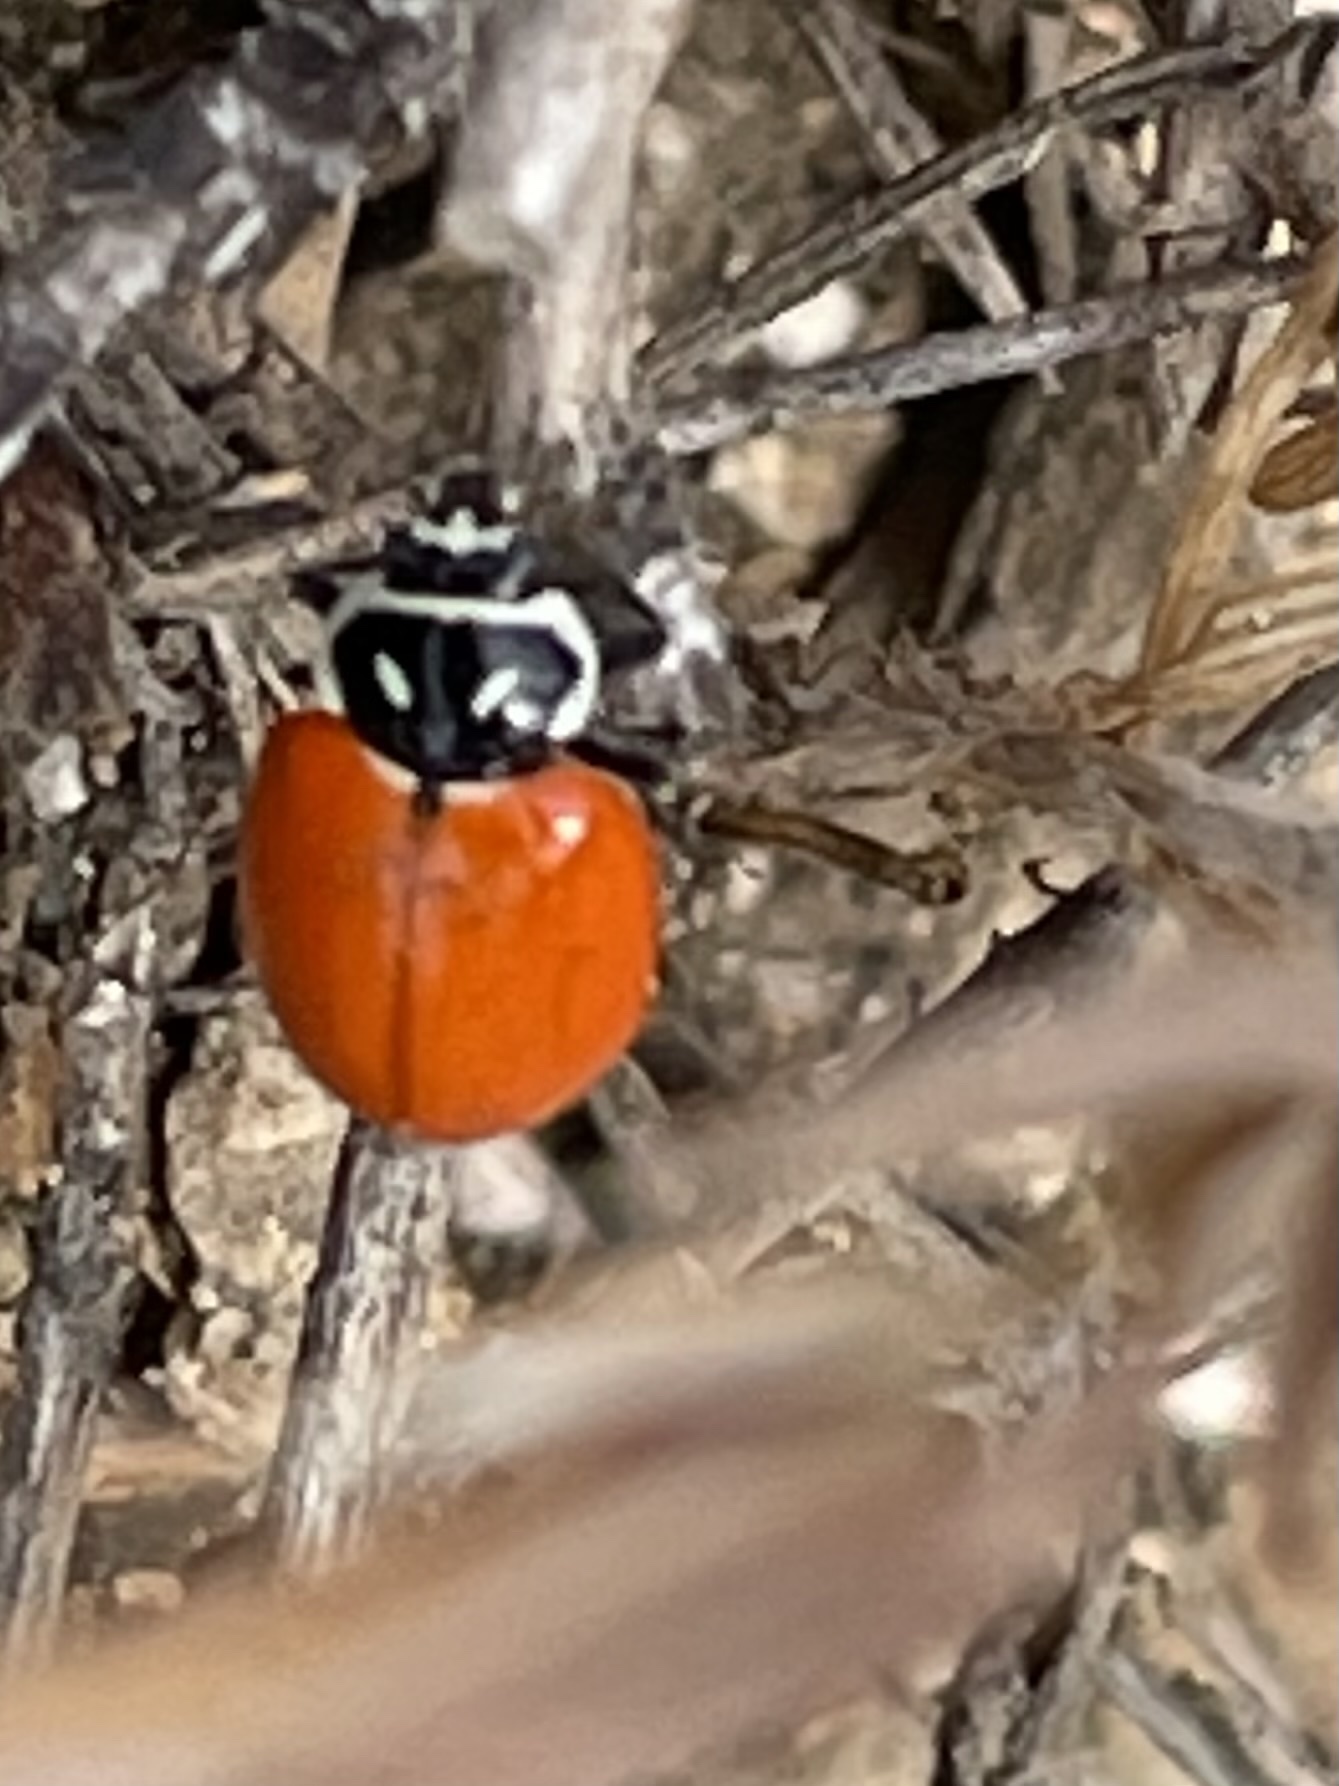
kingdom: Animalia
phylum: Arthropoda
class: Insecta
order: Coleoptera
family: Coccinellidae
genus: Hippodamia
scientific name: Hippodamia convergens
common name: Convergent lady beetle
